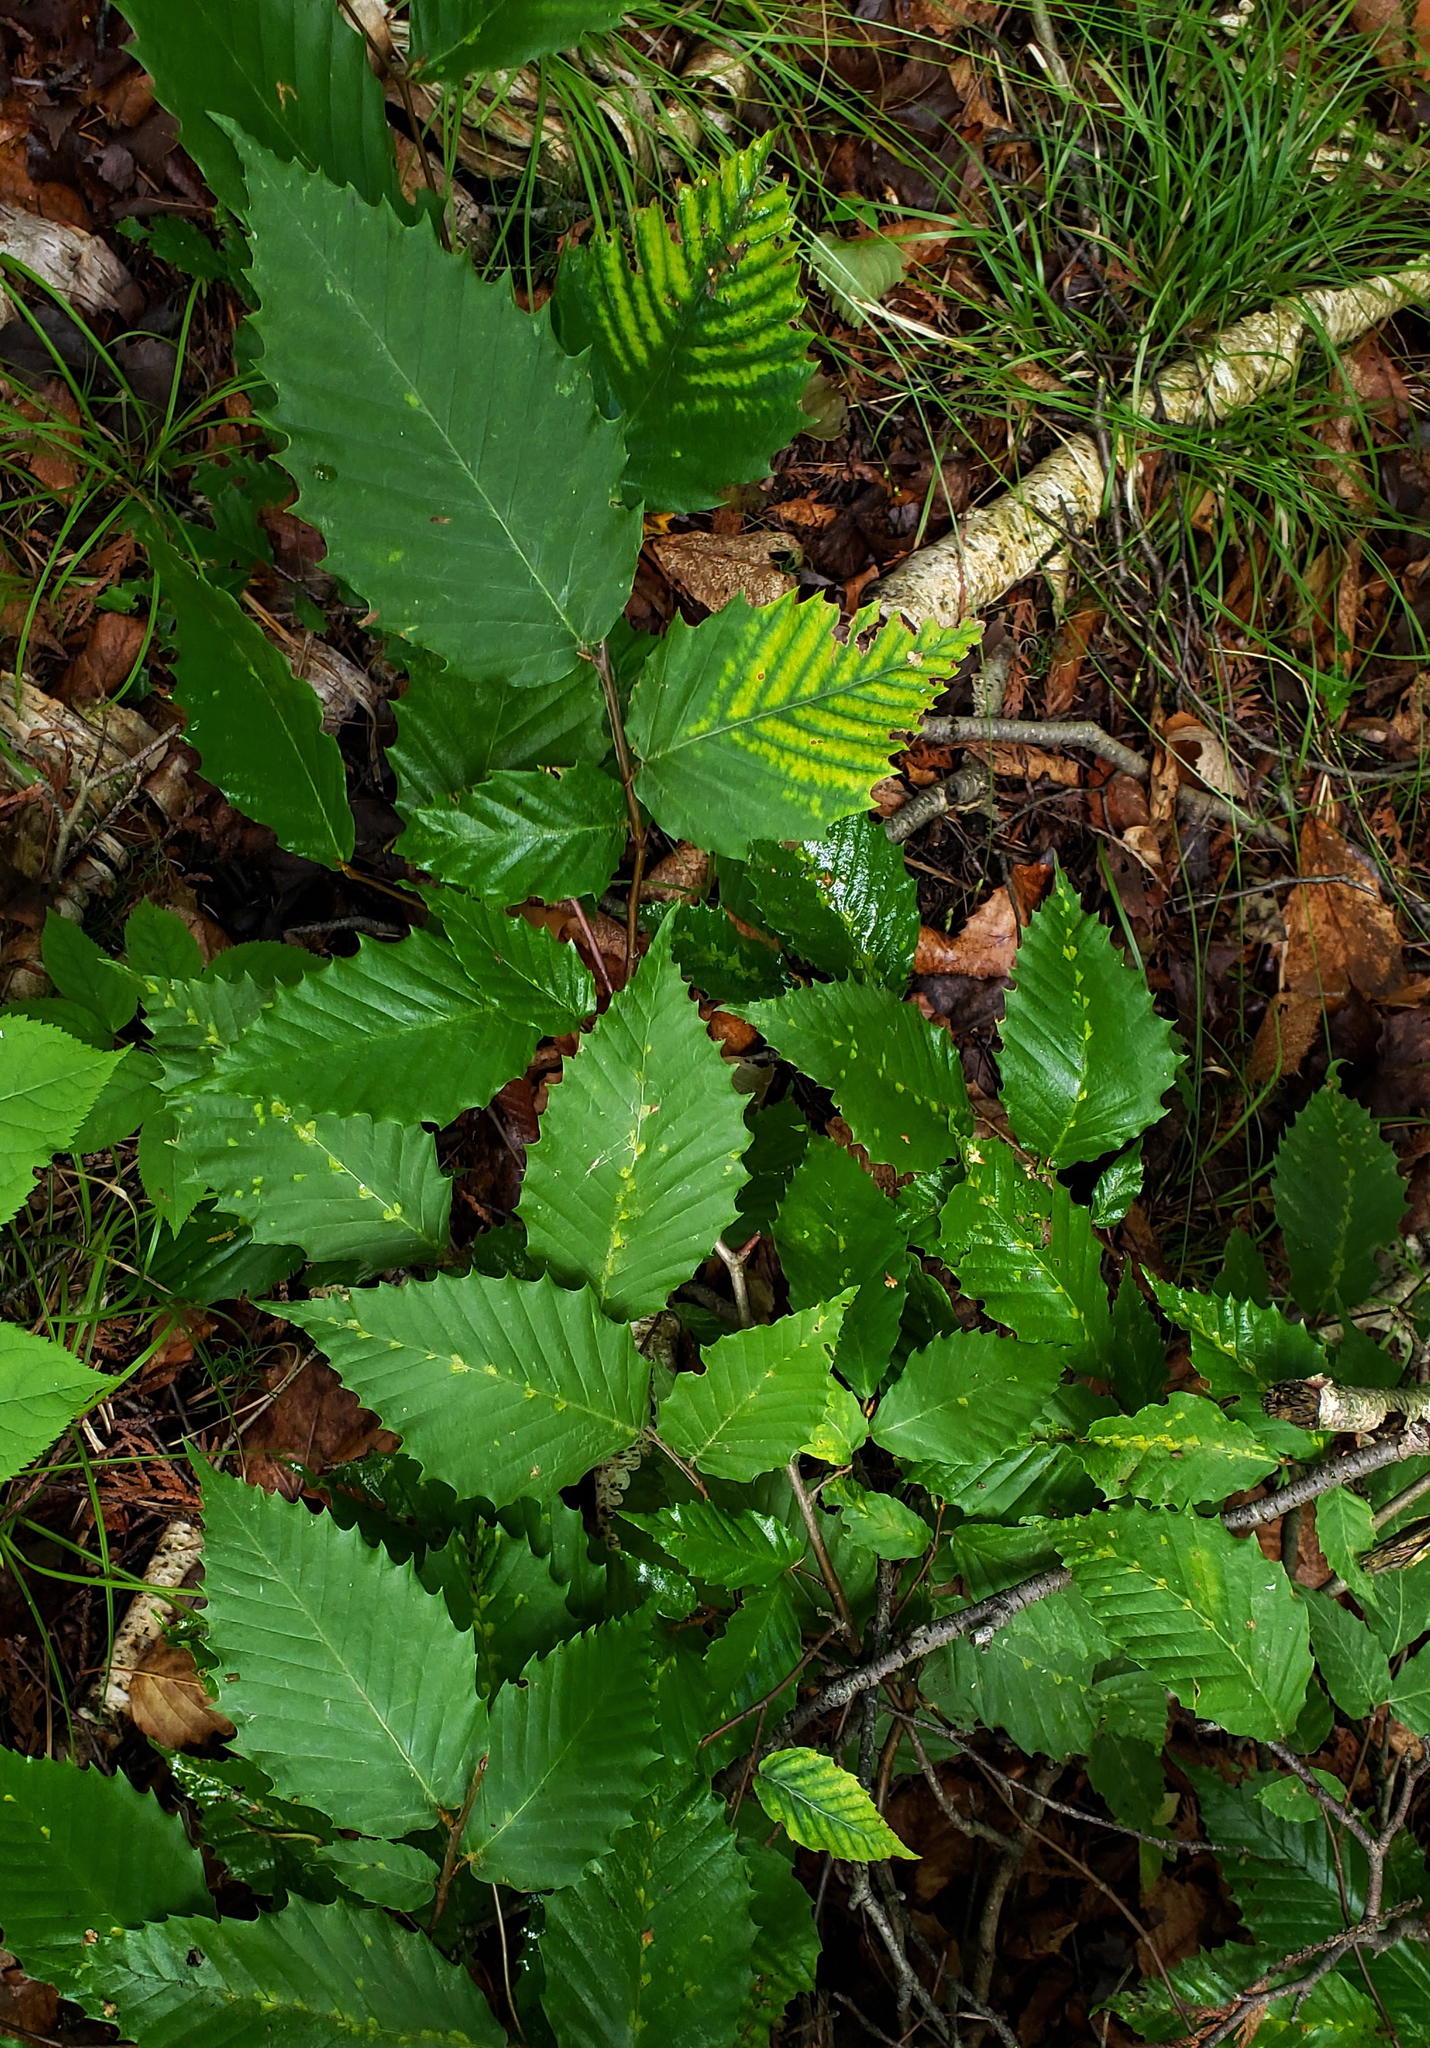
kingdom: Plantae
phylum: Tracheophyta
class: Magnoliopsida
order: Fagales
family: Fagaceae
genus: Fagus
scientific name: Fagus grandifolia
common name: American beech
